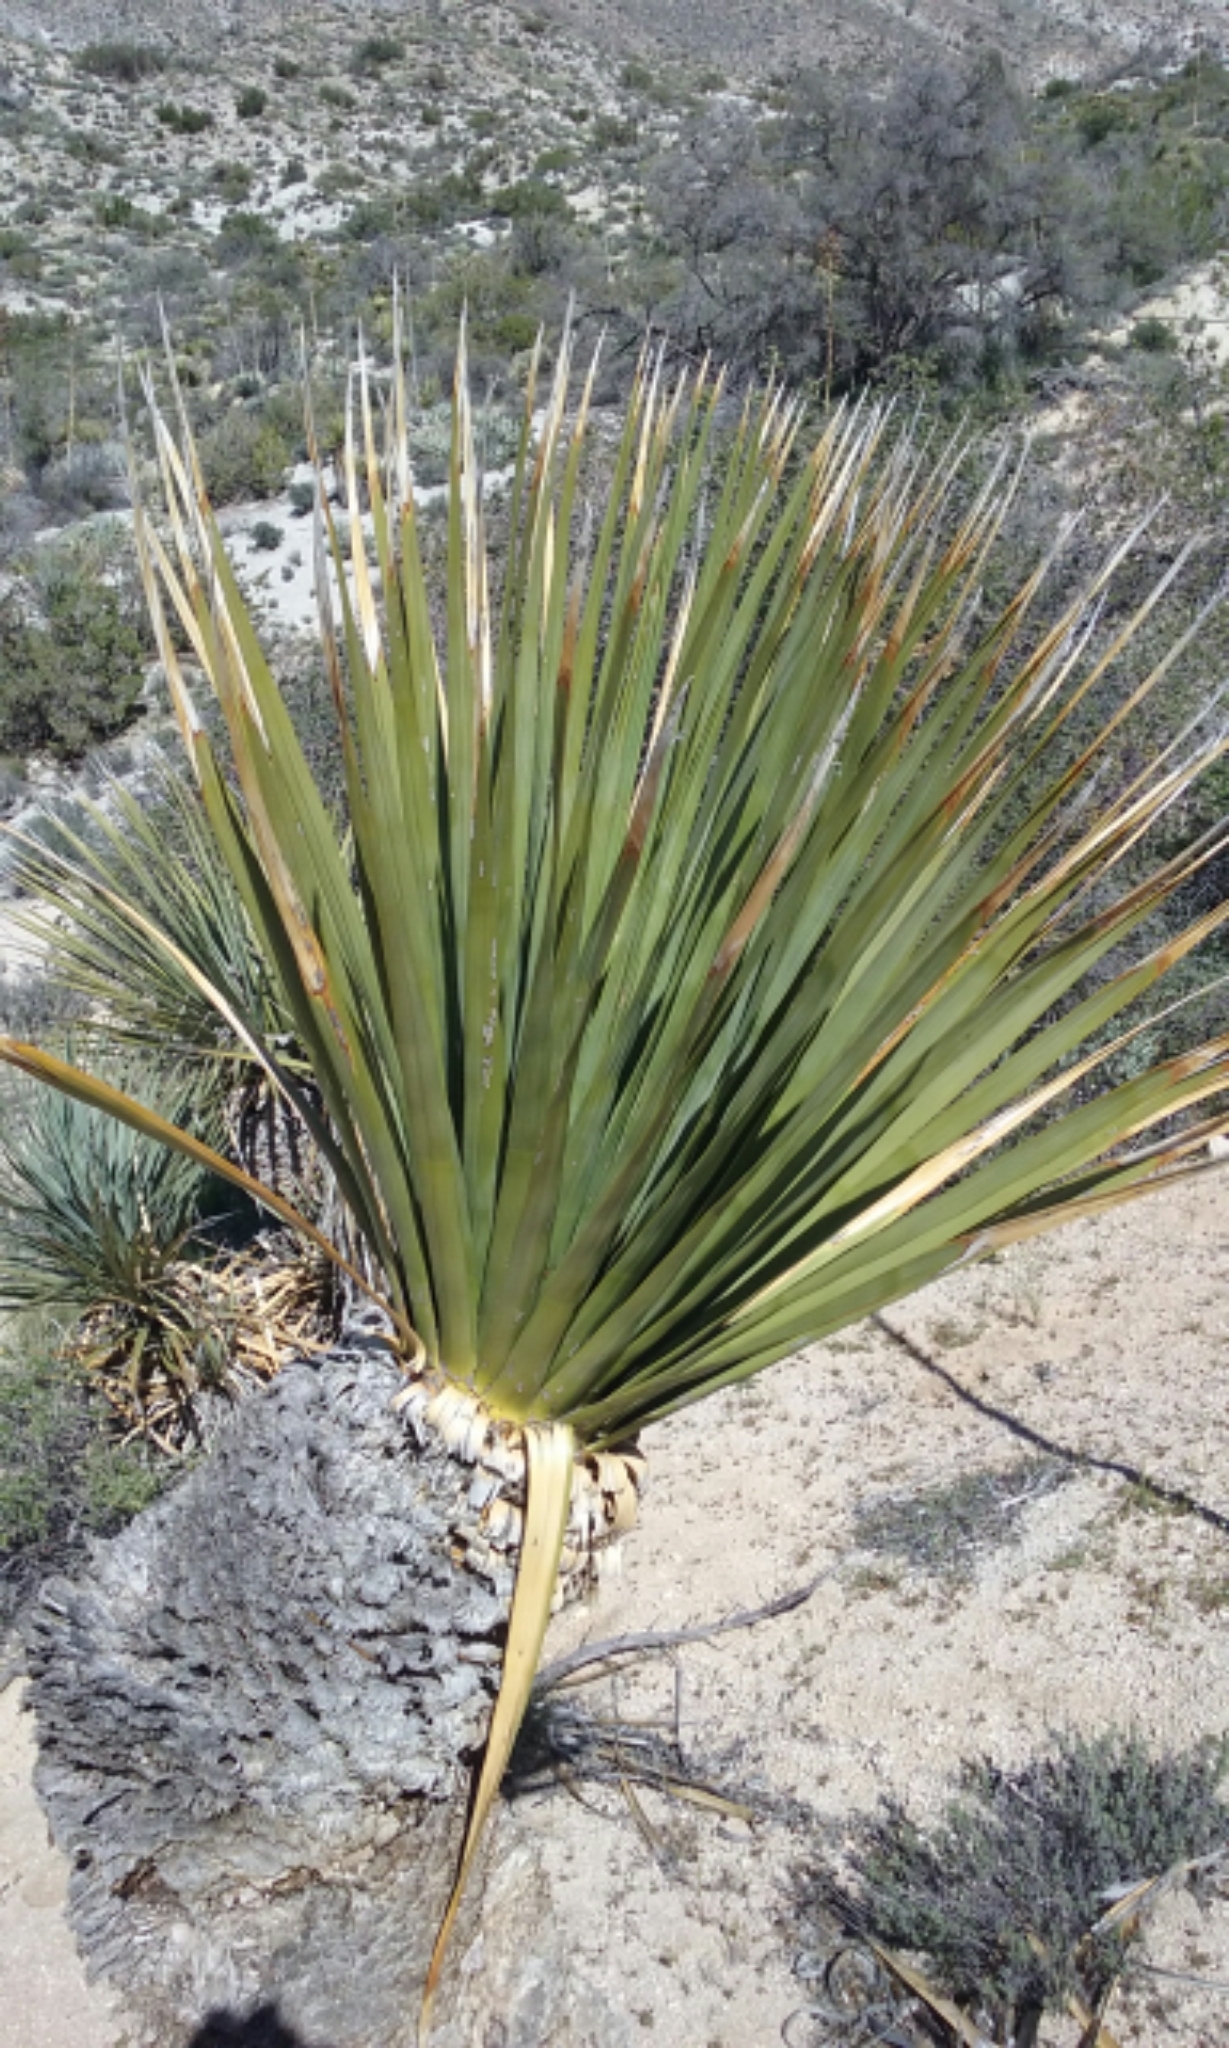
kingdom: Plantae
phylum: Tracheophyta
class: Liliopsida
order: Asparagales
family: Asparagaceae
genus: Nolina
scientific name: Nolina parryi
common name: Parry nolina
